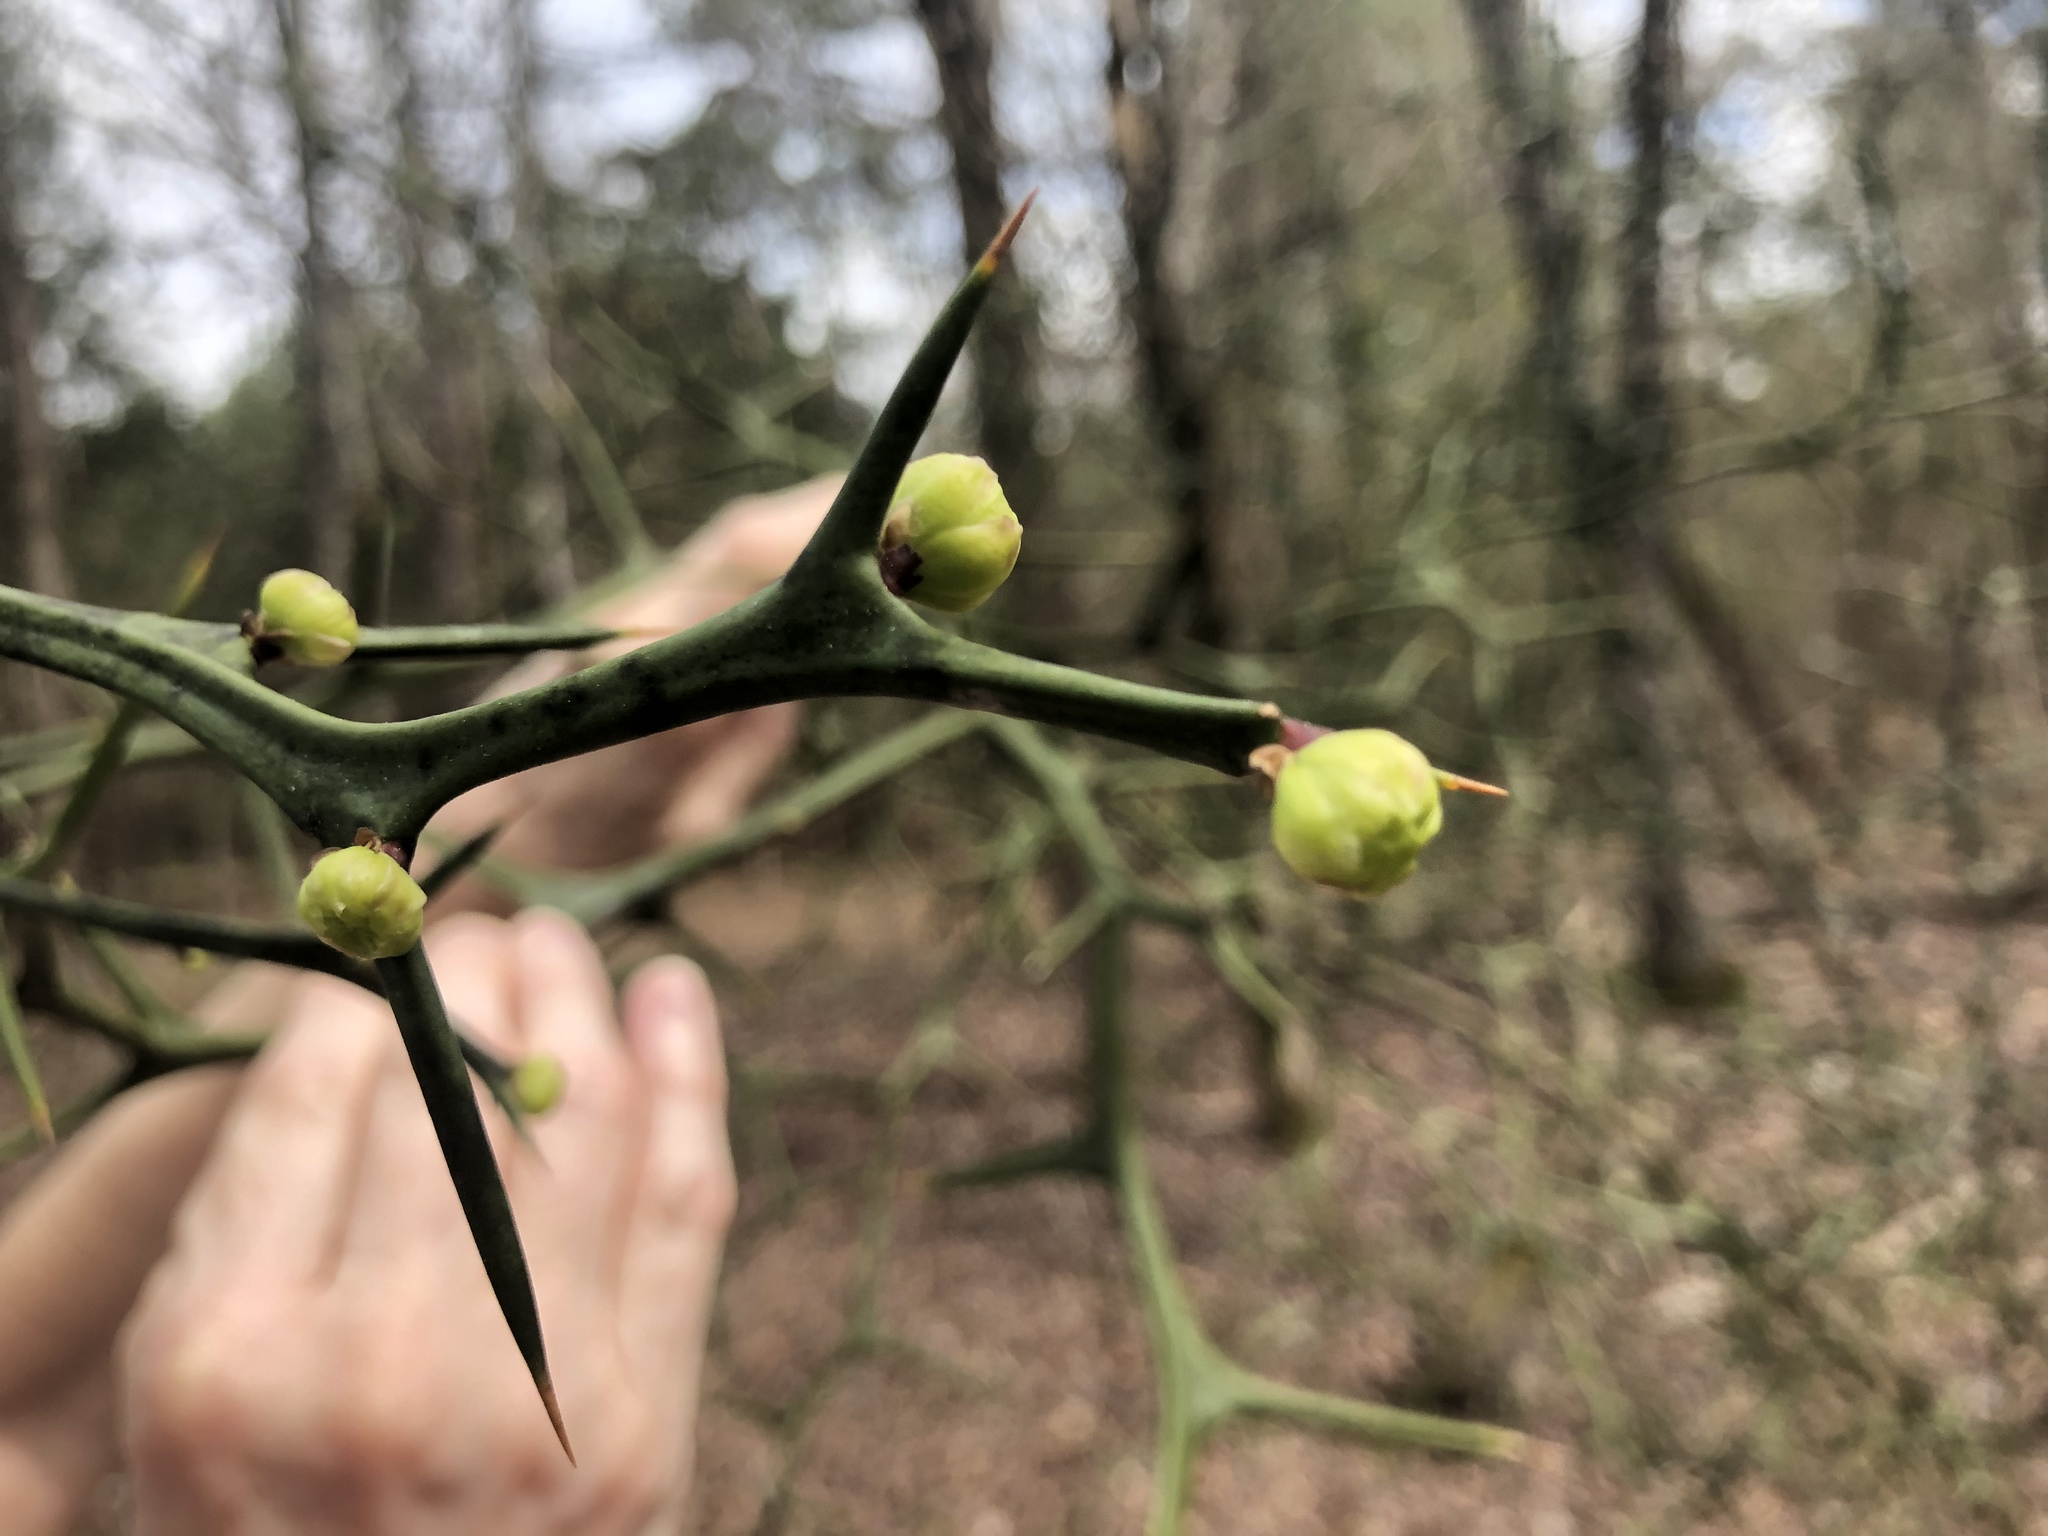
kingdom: Plantae
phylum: Tracheophyta
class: Magnoliopsida
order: Sapindales
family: Rutaceae
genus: Citrus
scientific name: Citrus trifoliata
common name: Japanese bitter-orange
